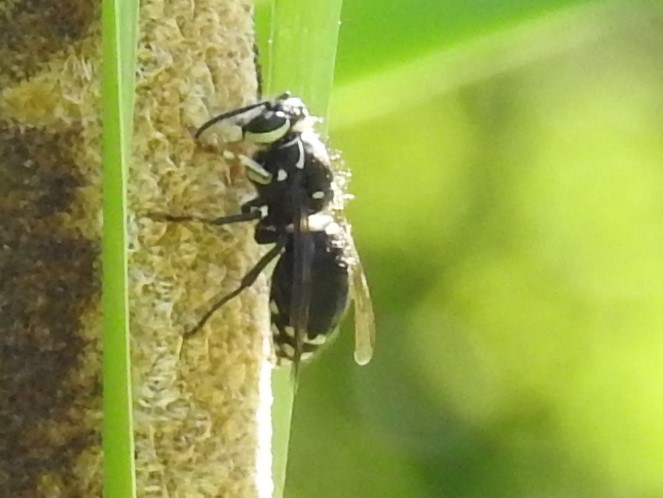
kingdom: Animalia
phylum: Arthropoda
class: Insecta
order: Hymenoptera
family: Vespidae
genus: Dolichovespula
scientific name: Dolichovespula maculata
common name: Bald-faced hornet
